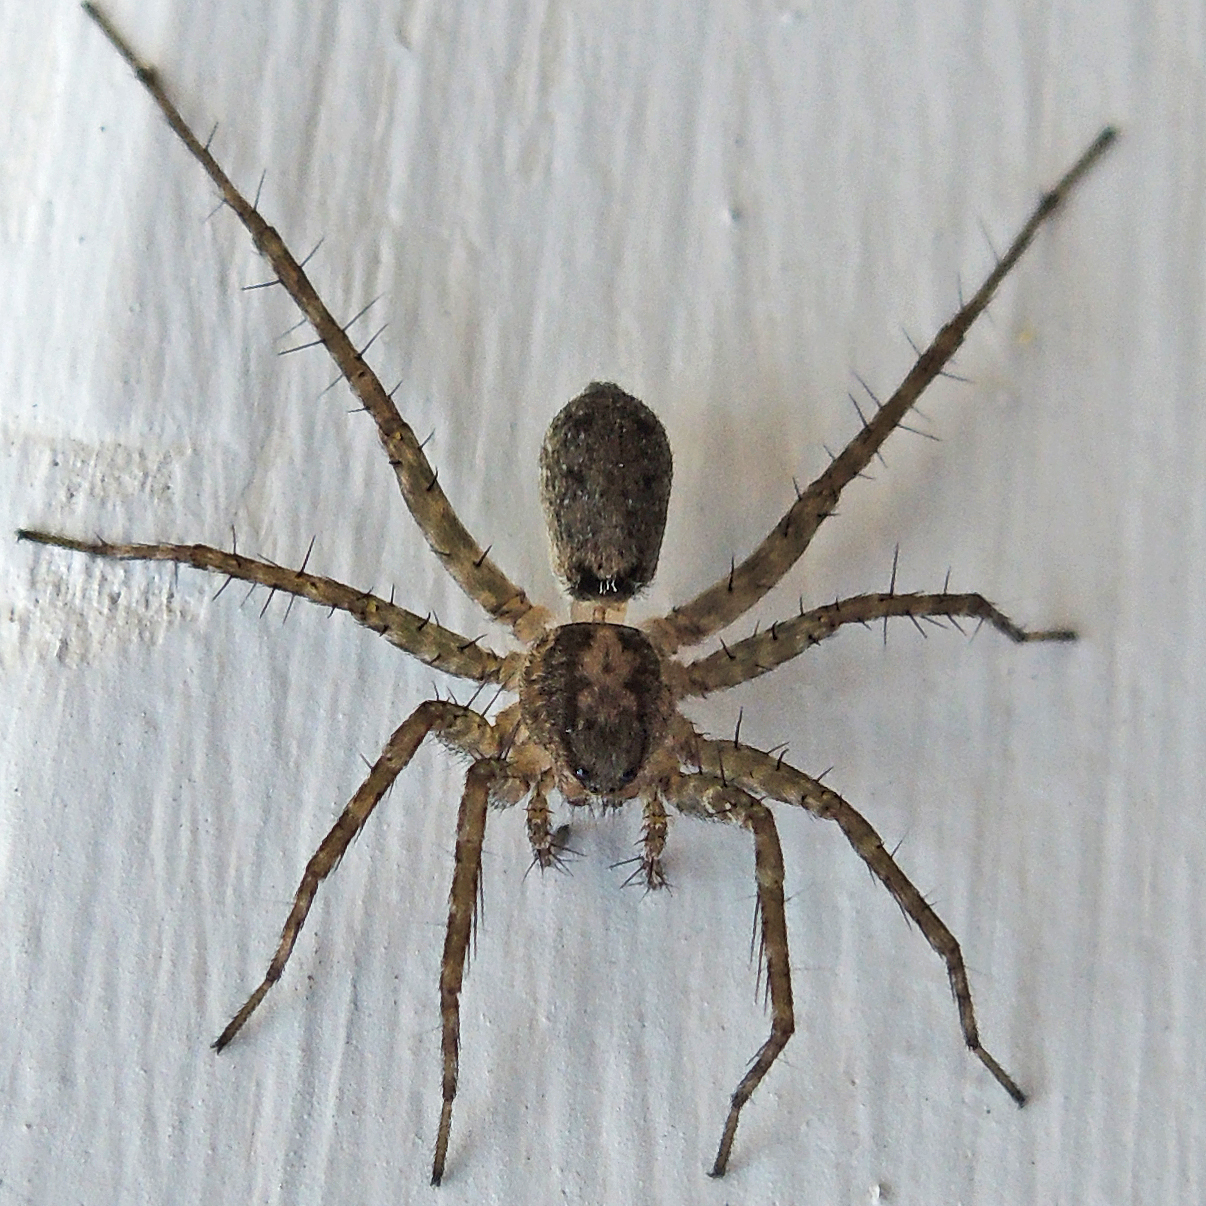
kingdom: Animalia
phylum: Arthropoda
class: Arachnida
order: Araneae
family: Lycosidae
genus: Pardosa
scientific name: Pardosa
